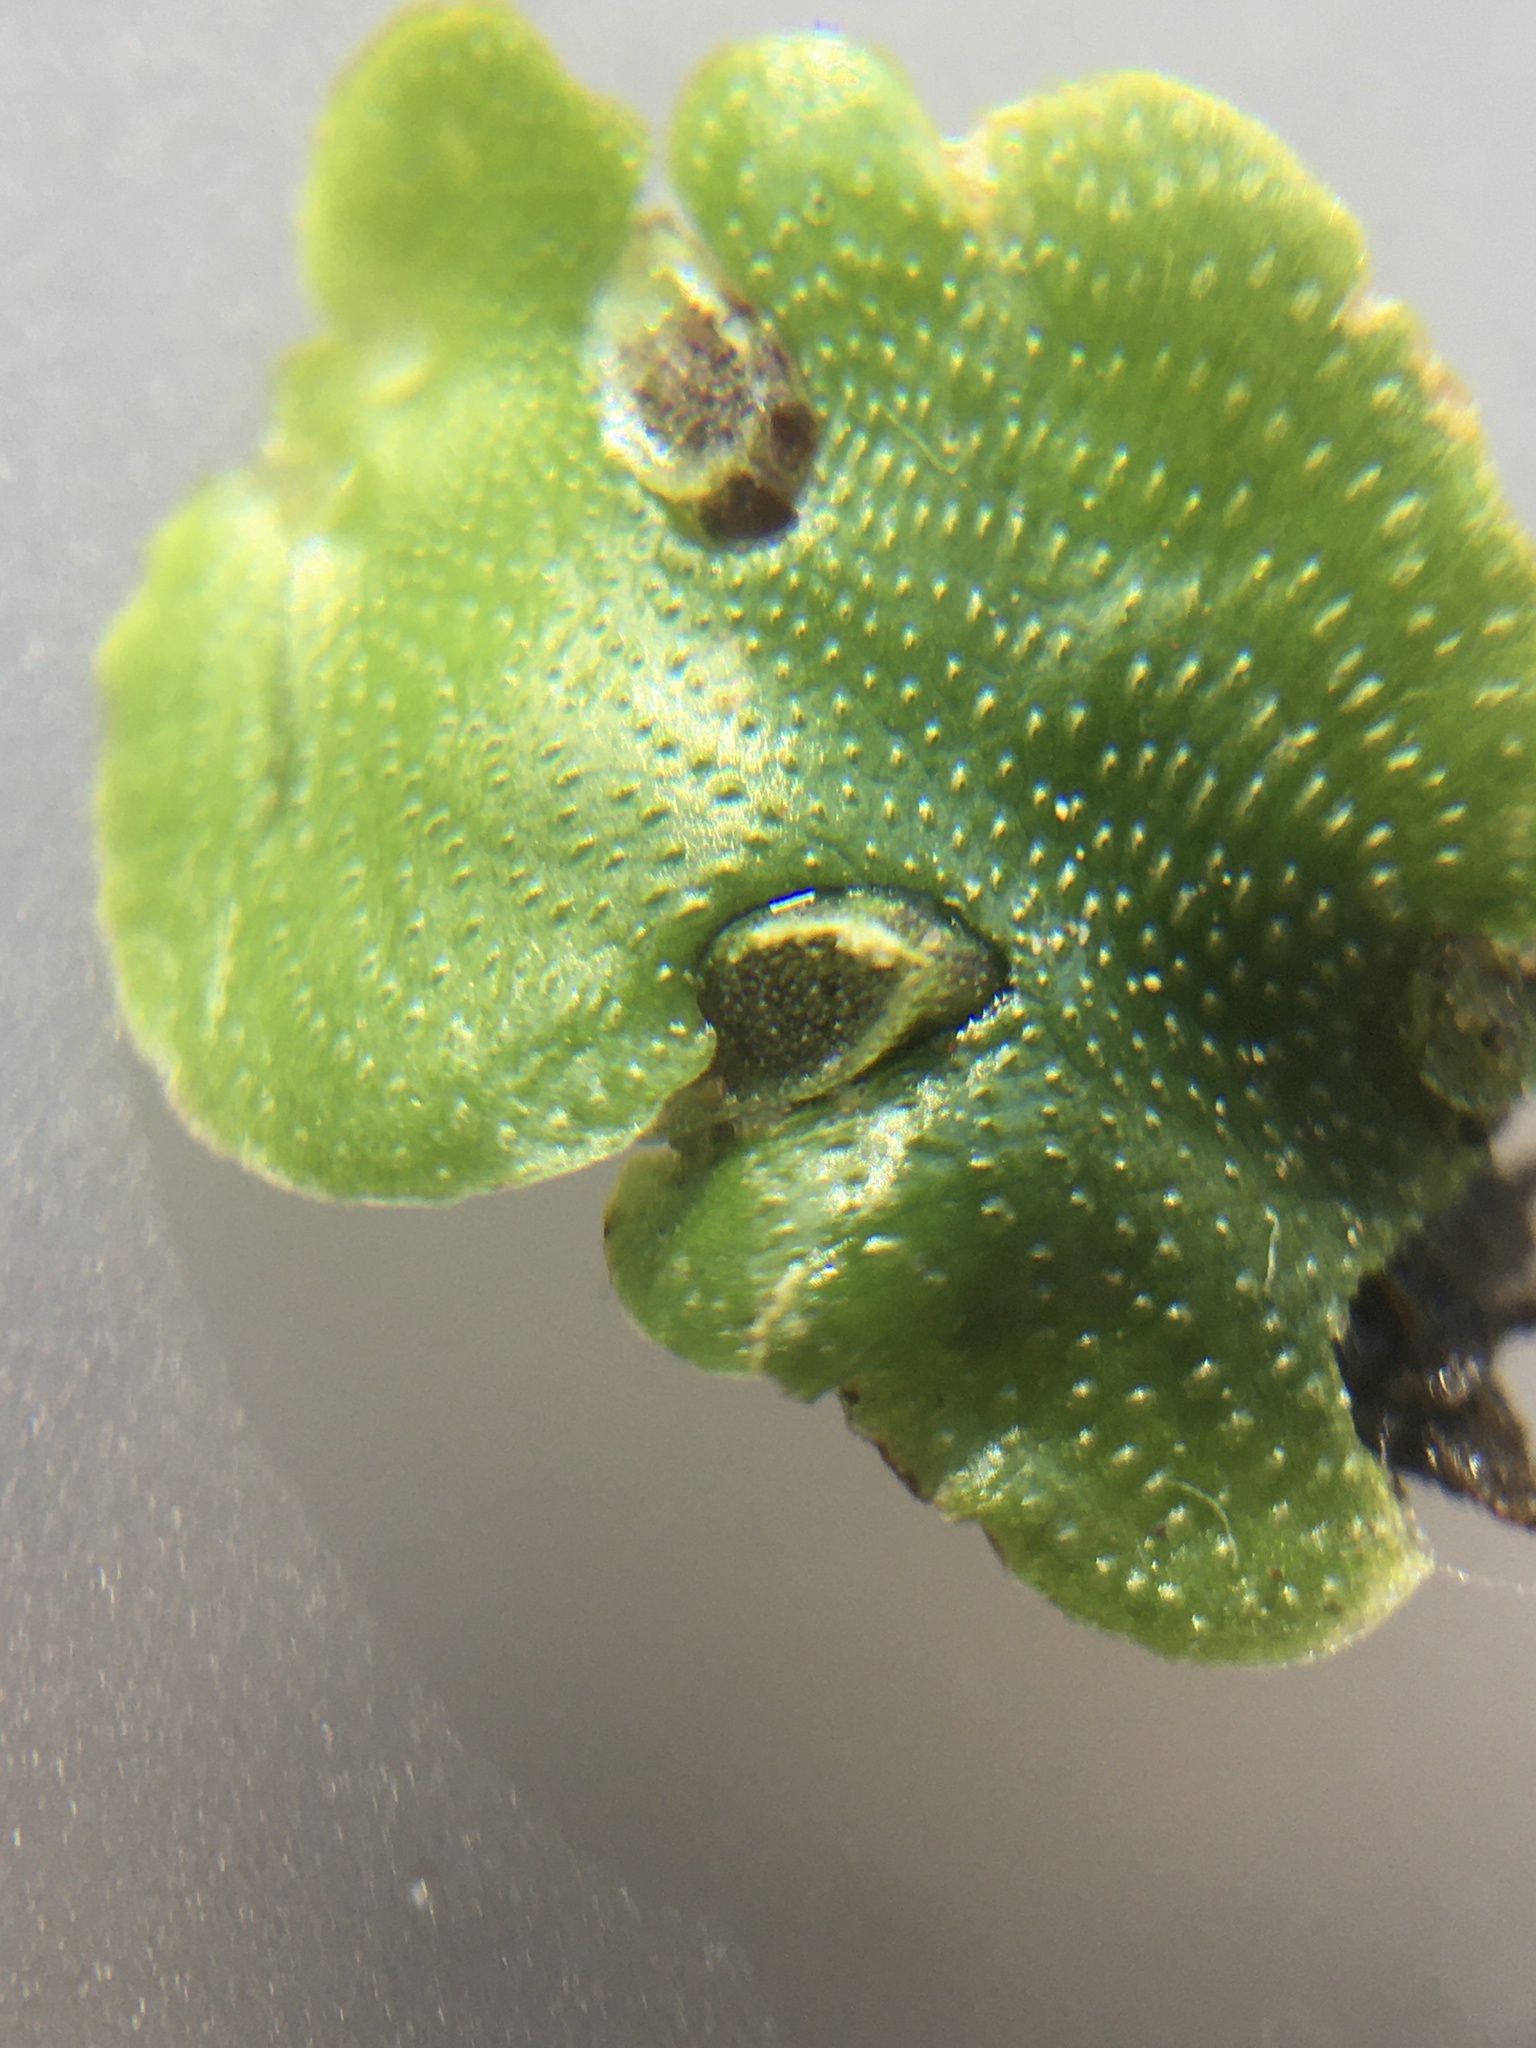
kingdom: Plantae
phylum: Marchantiophyta
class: Marchantiopsida
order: Lunulariales
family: Lunulariaceae
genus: Lunularia
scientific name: Lunularia cruciata
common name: Crescent-cup liverwort
